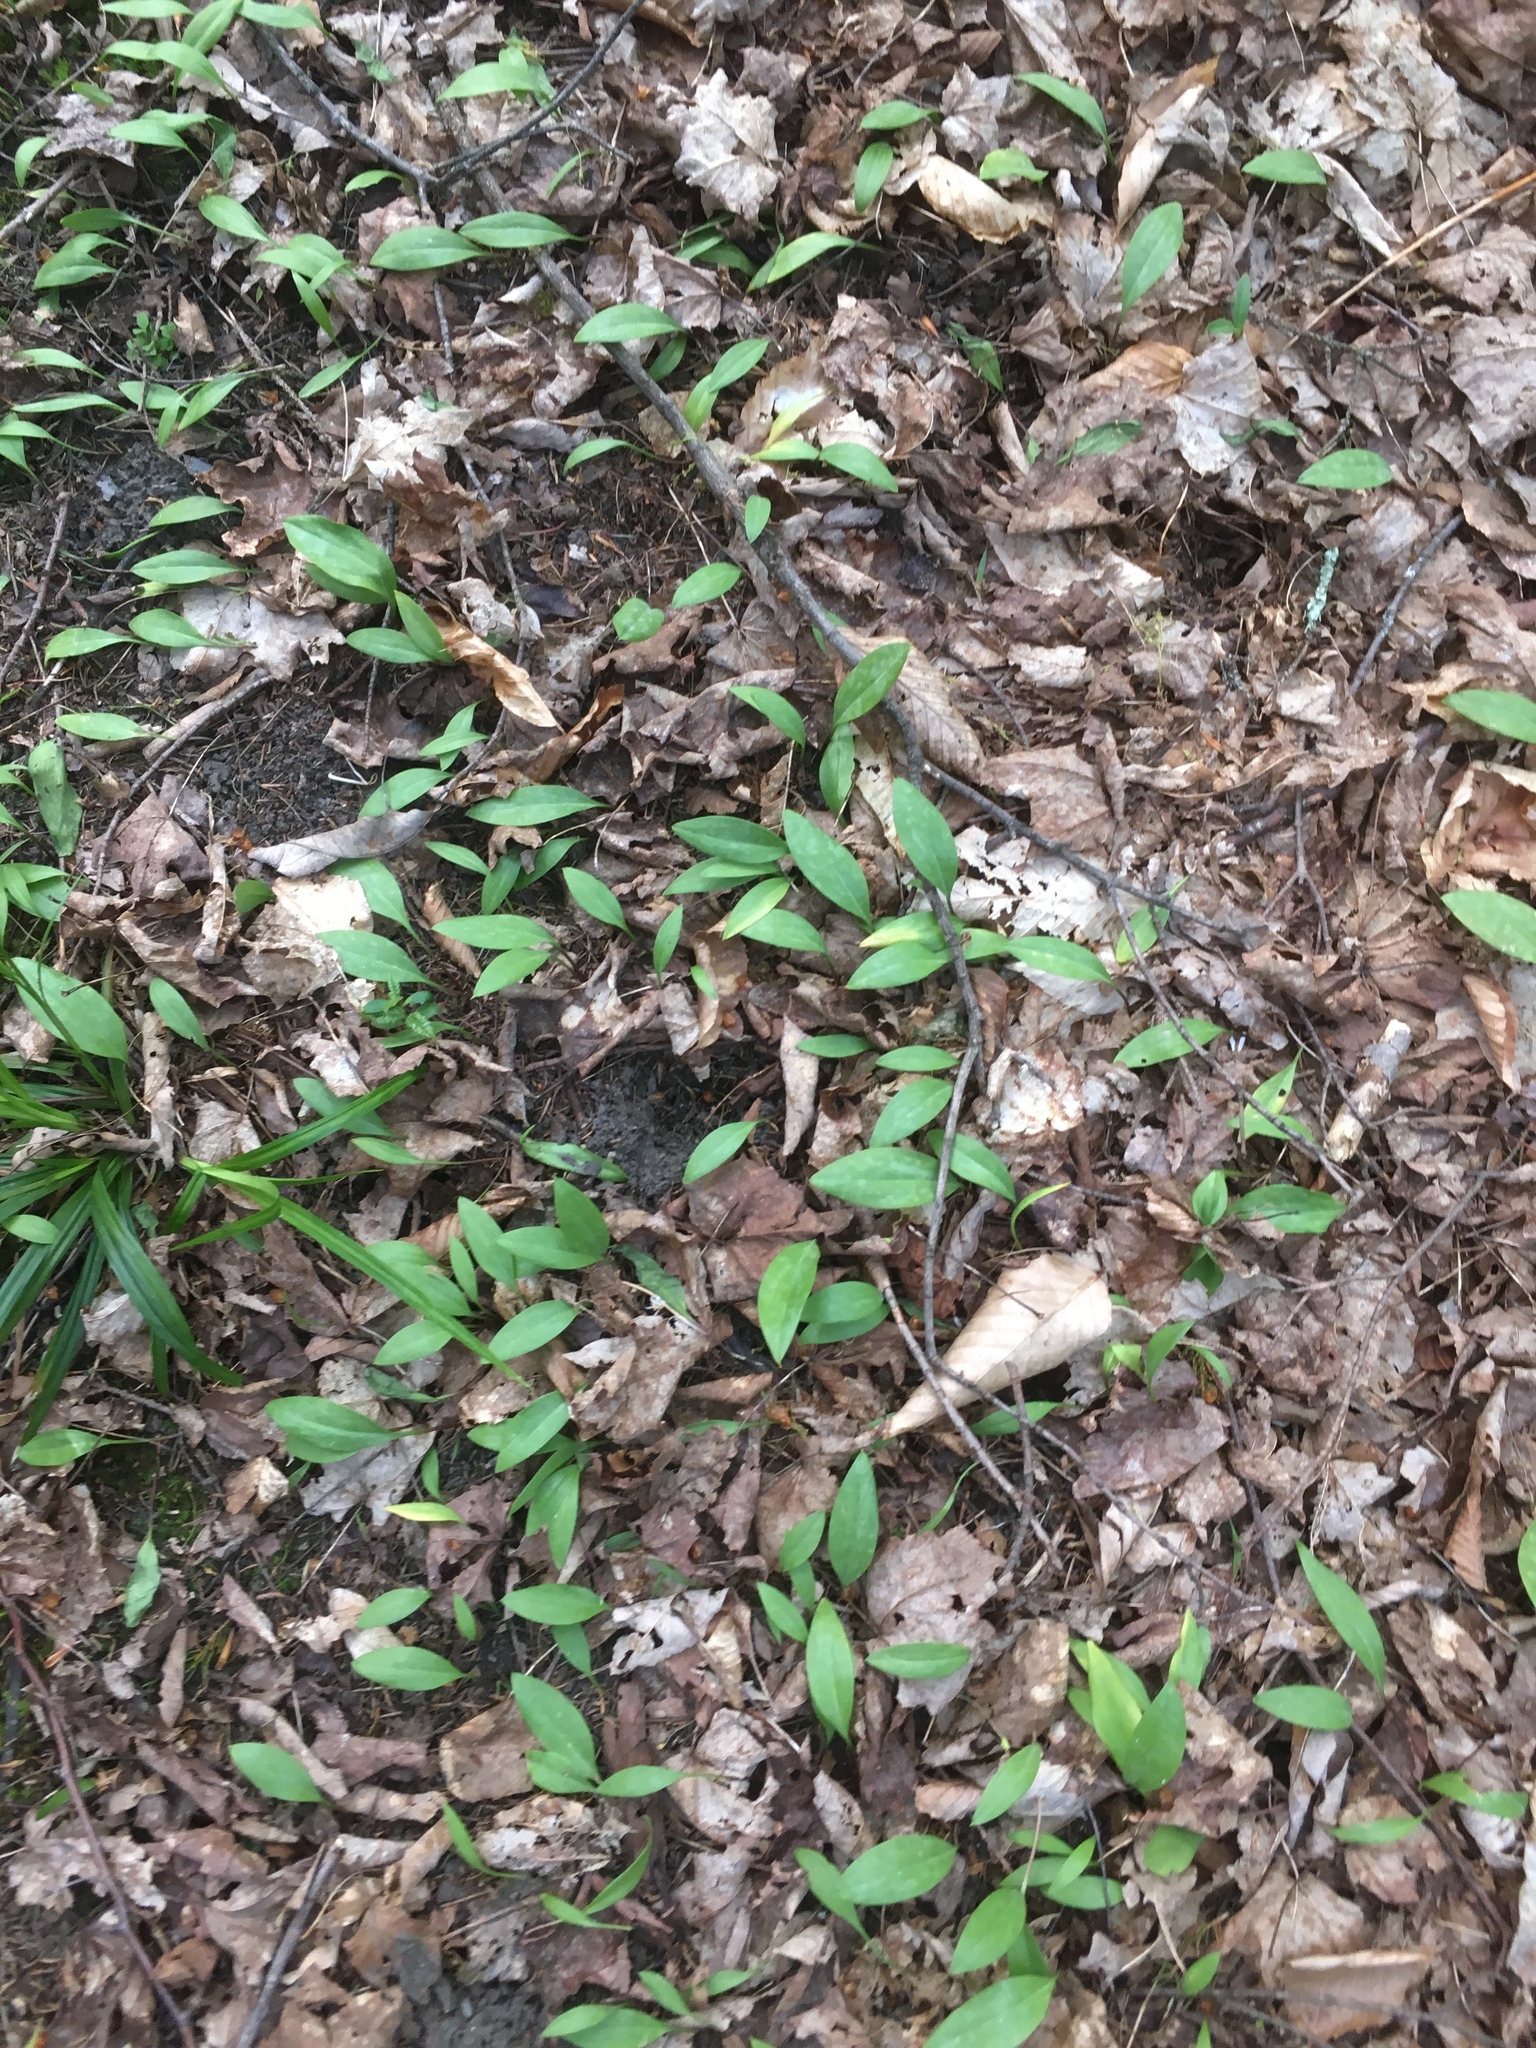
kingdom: Plantae
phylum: Tracheophyta
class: Liliopsida
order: Liliales
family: Liliaceae
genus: Erythronium
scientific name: Erythronium americanum
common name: Yellow adder's-tongue
